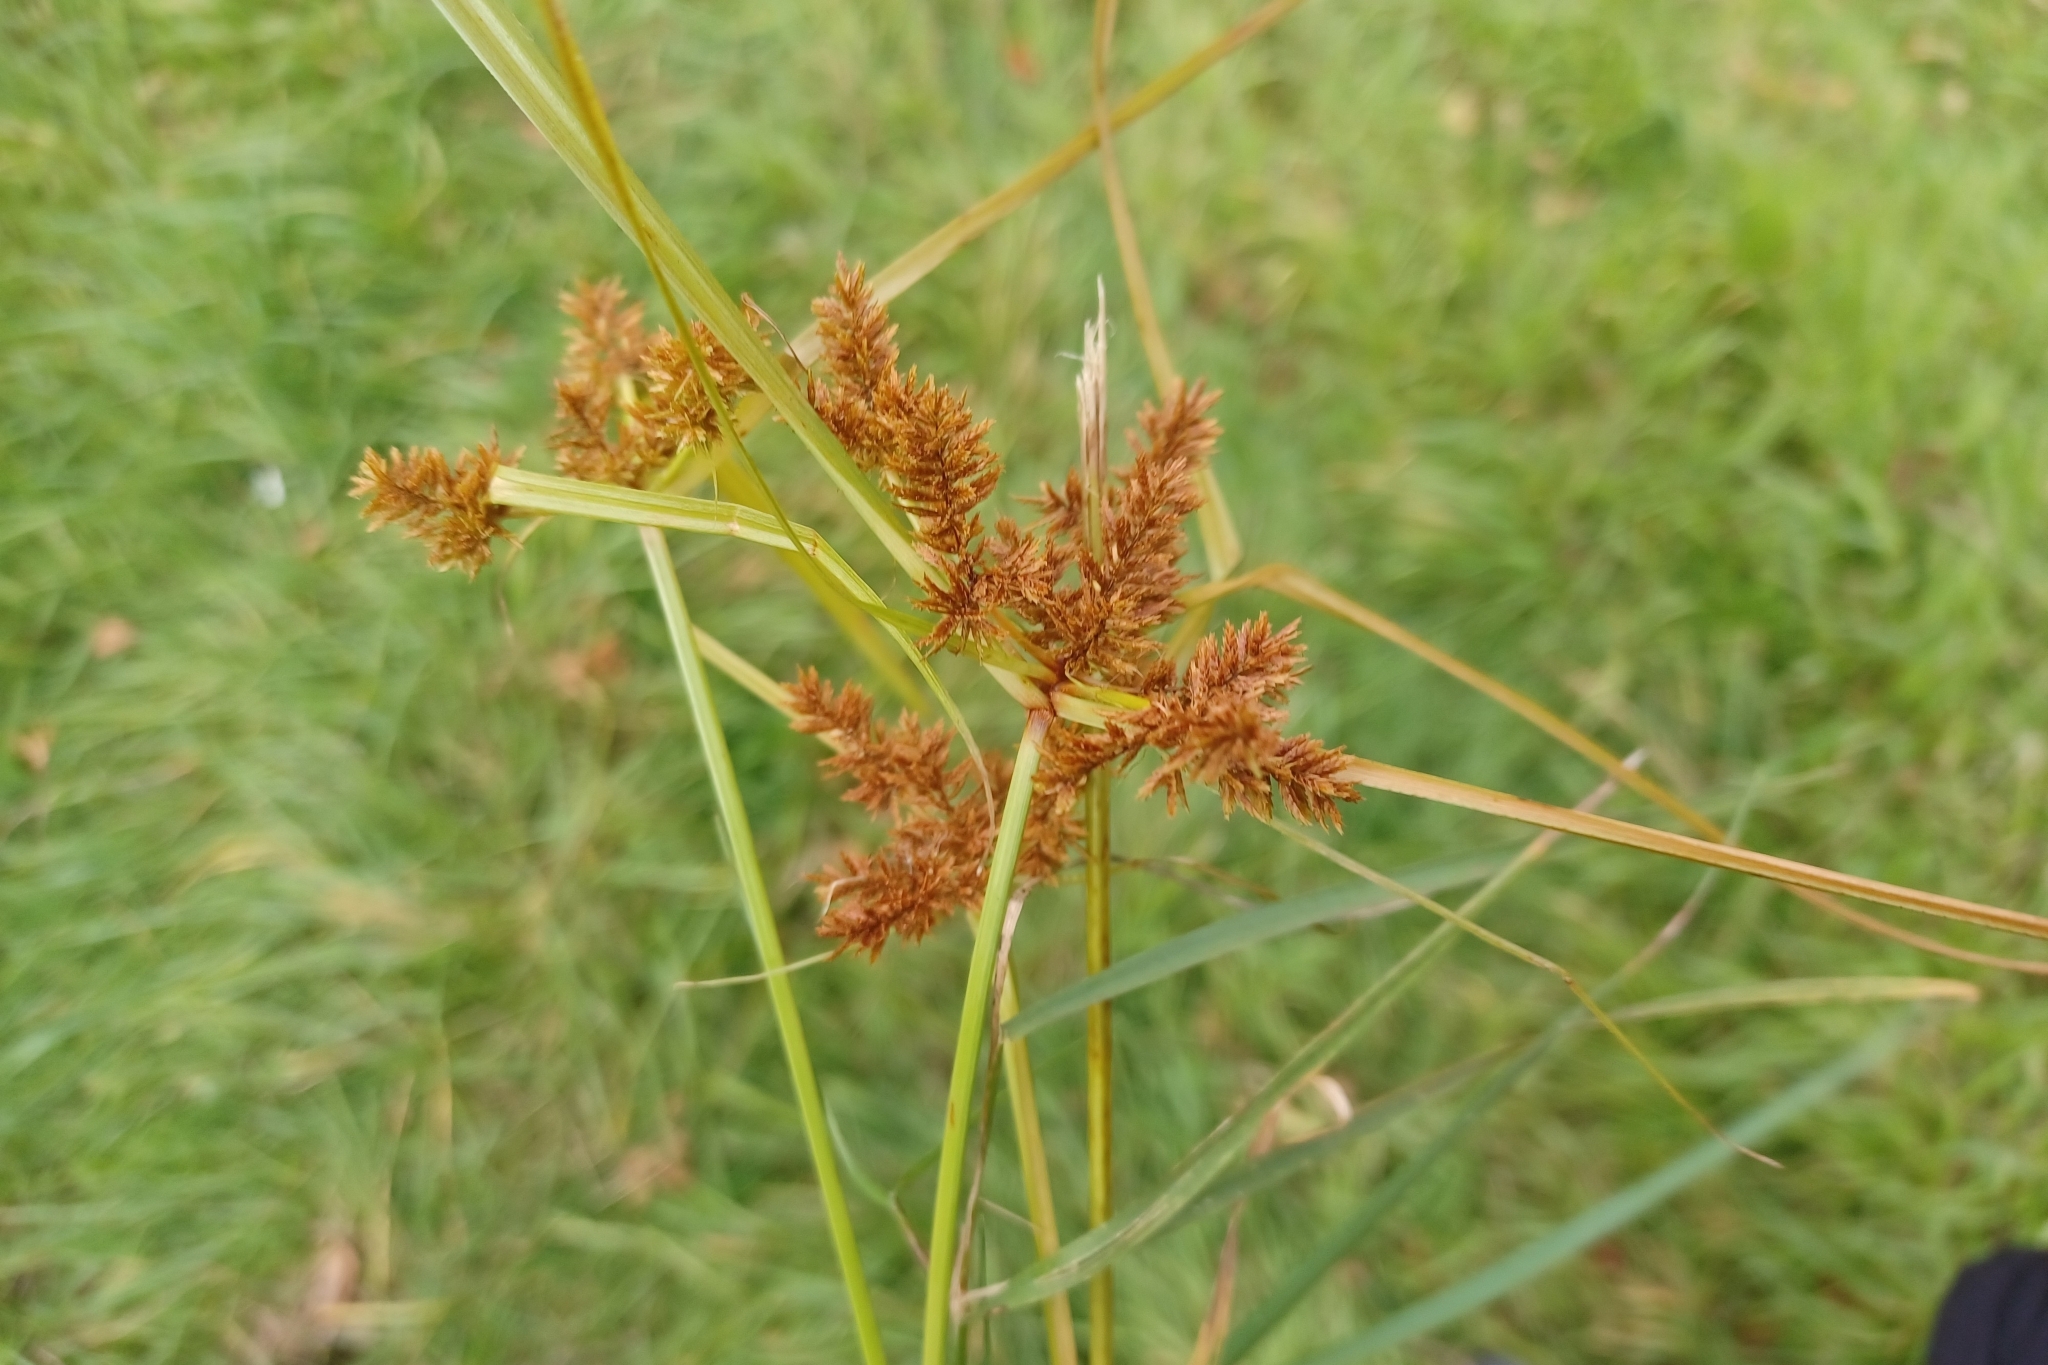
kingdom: Plantae
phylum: Tracheophyta
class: Liliopsida
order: Poales
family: Cyperaceae
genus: Cyperus
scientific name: Cyperus erythrorhizos
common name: Red-root flat sedge
